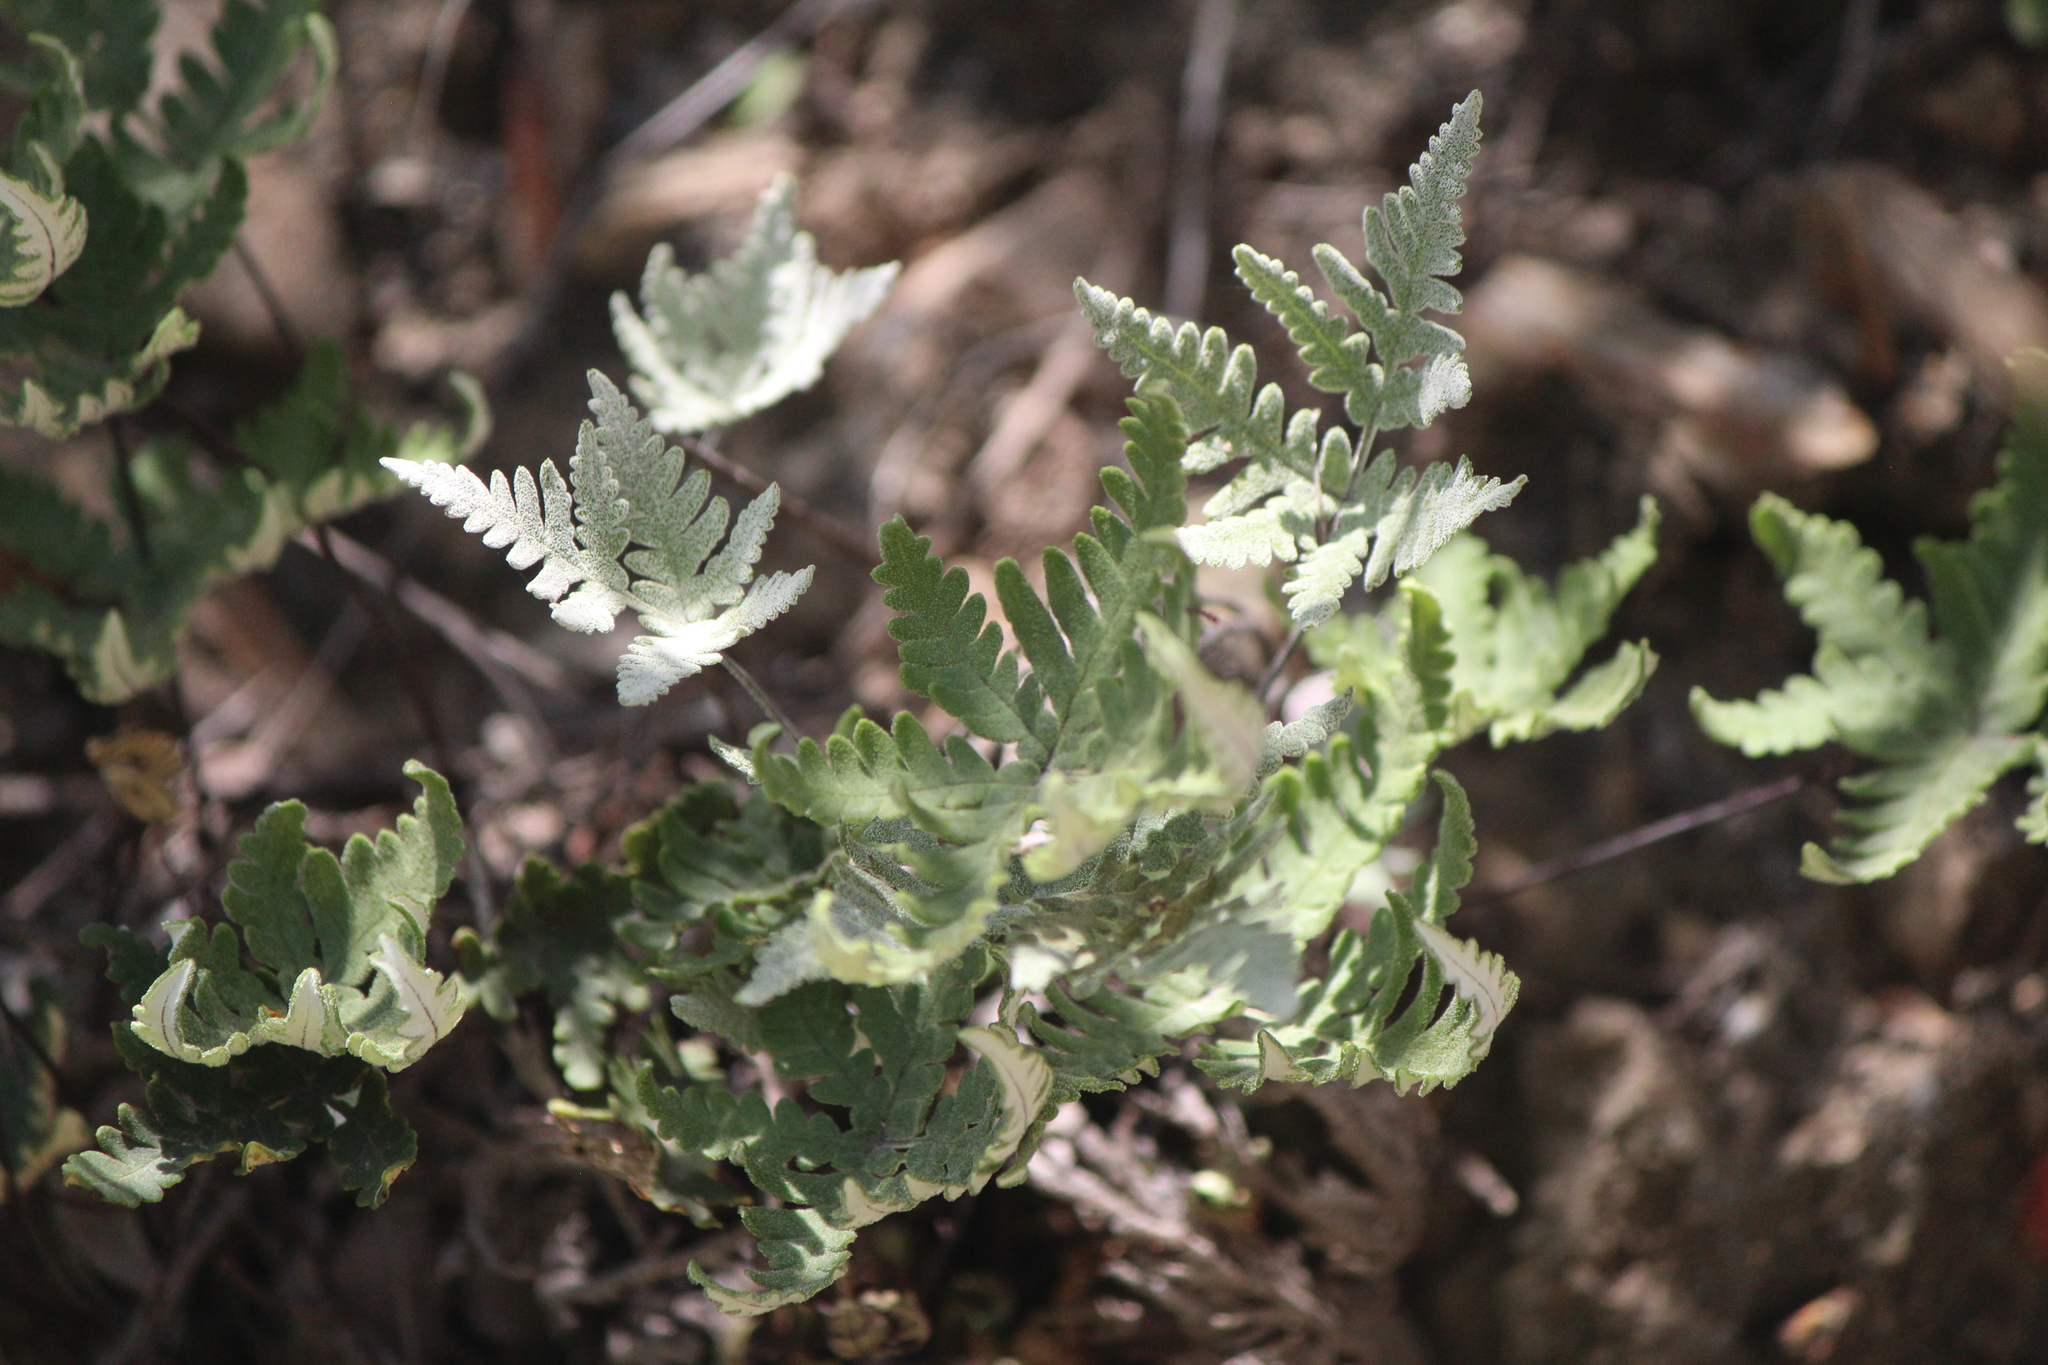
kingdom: Plantae
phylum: Tracheophyta
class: Polypodiopsida
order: Polypodiales
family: Pteridaceae
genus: Notholaena
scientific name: Notholaena standleyi
